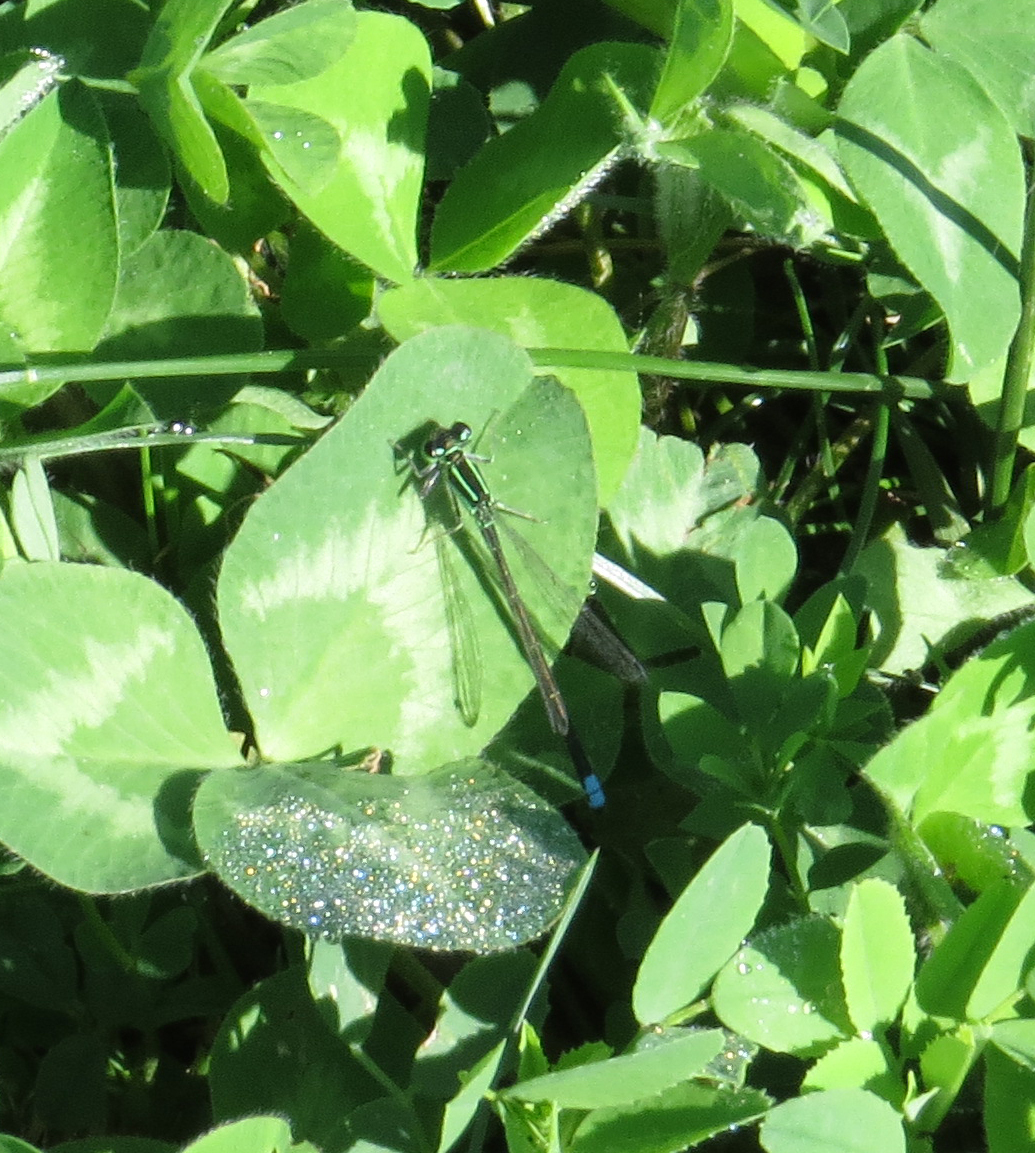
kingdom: Animalia
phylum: Arthropoda
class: Insecta
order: Odonata
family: Coenagrionidae
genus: Ischnura
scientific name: Ischnura verticalis
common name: Eastern forktail
